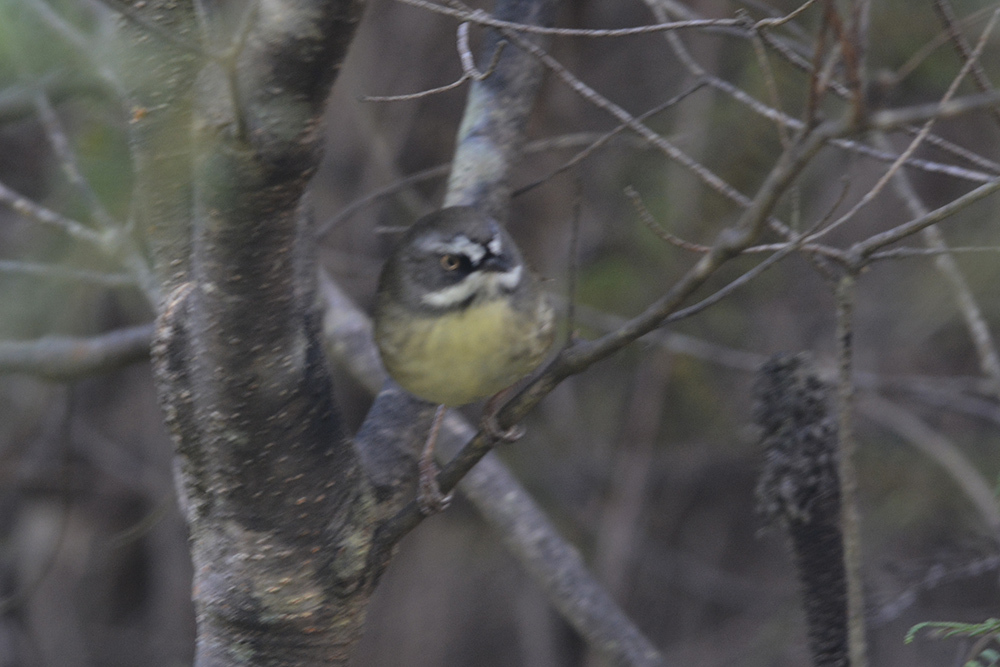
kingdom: Animalia
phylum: Chordata
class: Aves
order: Passeriformes
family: Acanthizidae
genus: Sericornis
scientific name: Sericornis frontalis
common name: White-browed scrubwren
